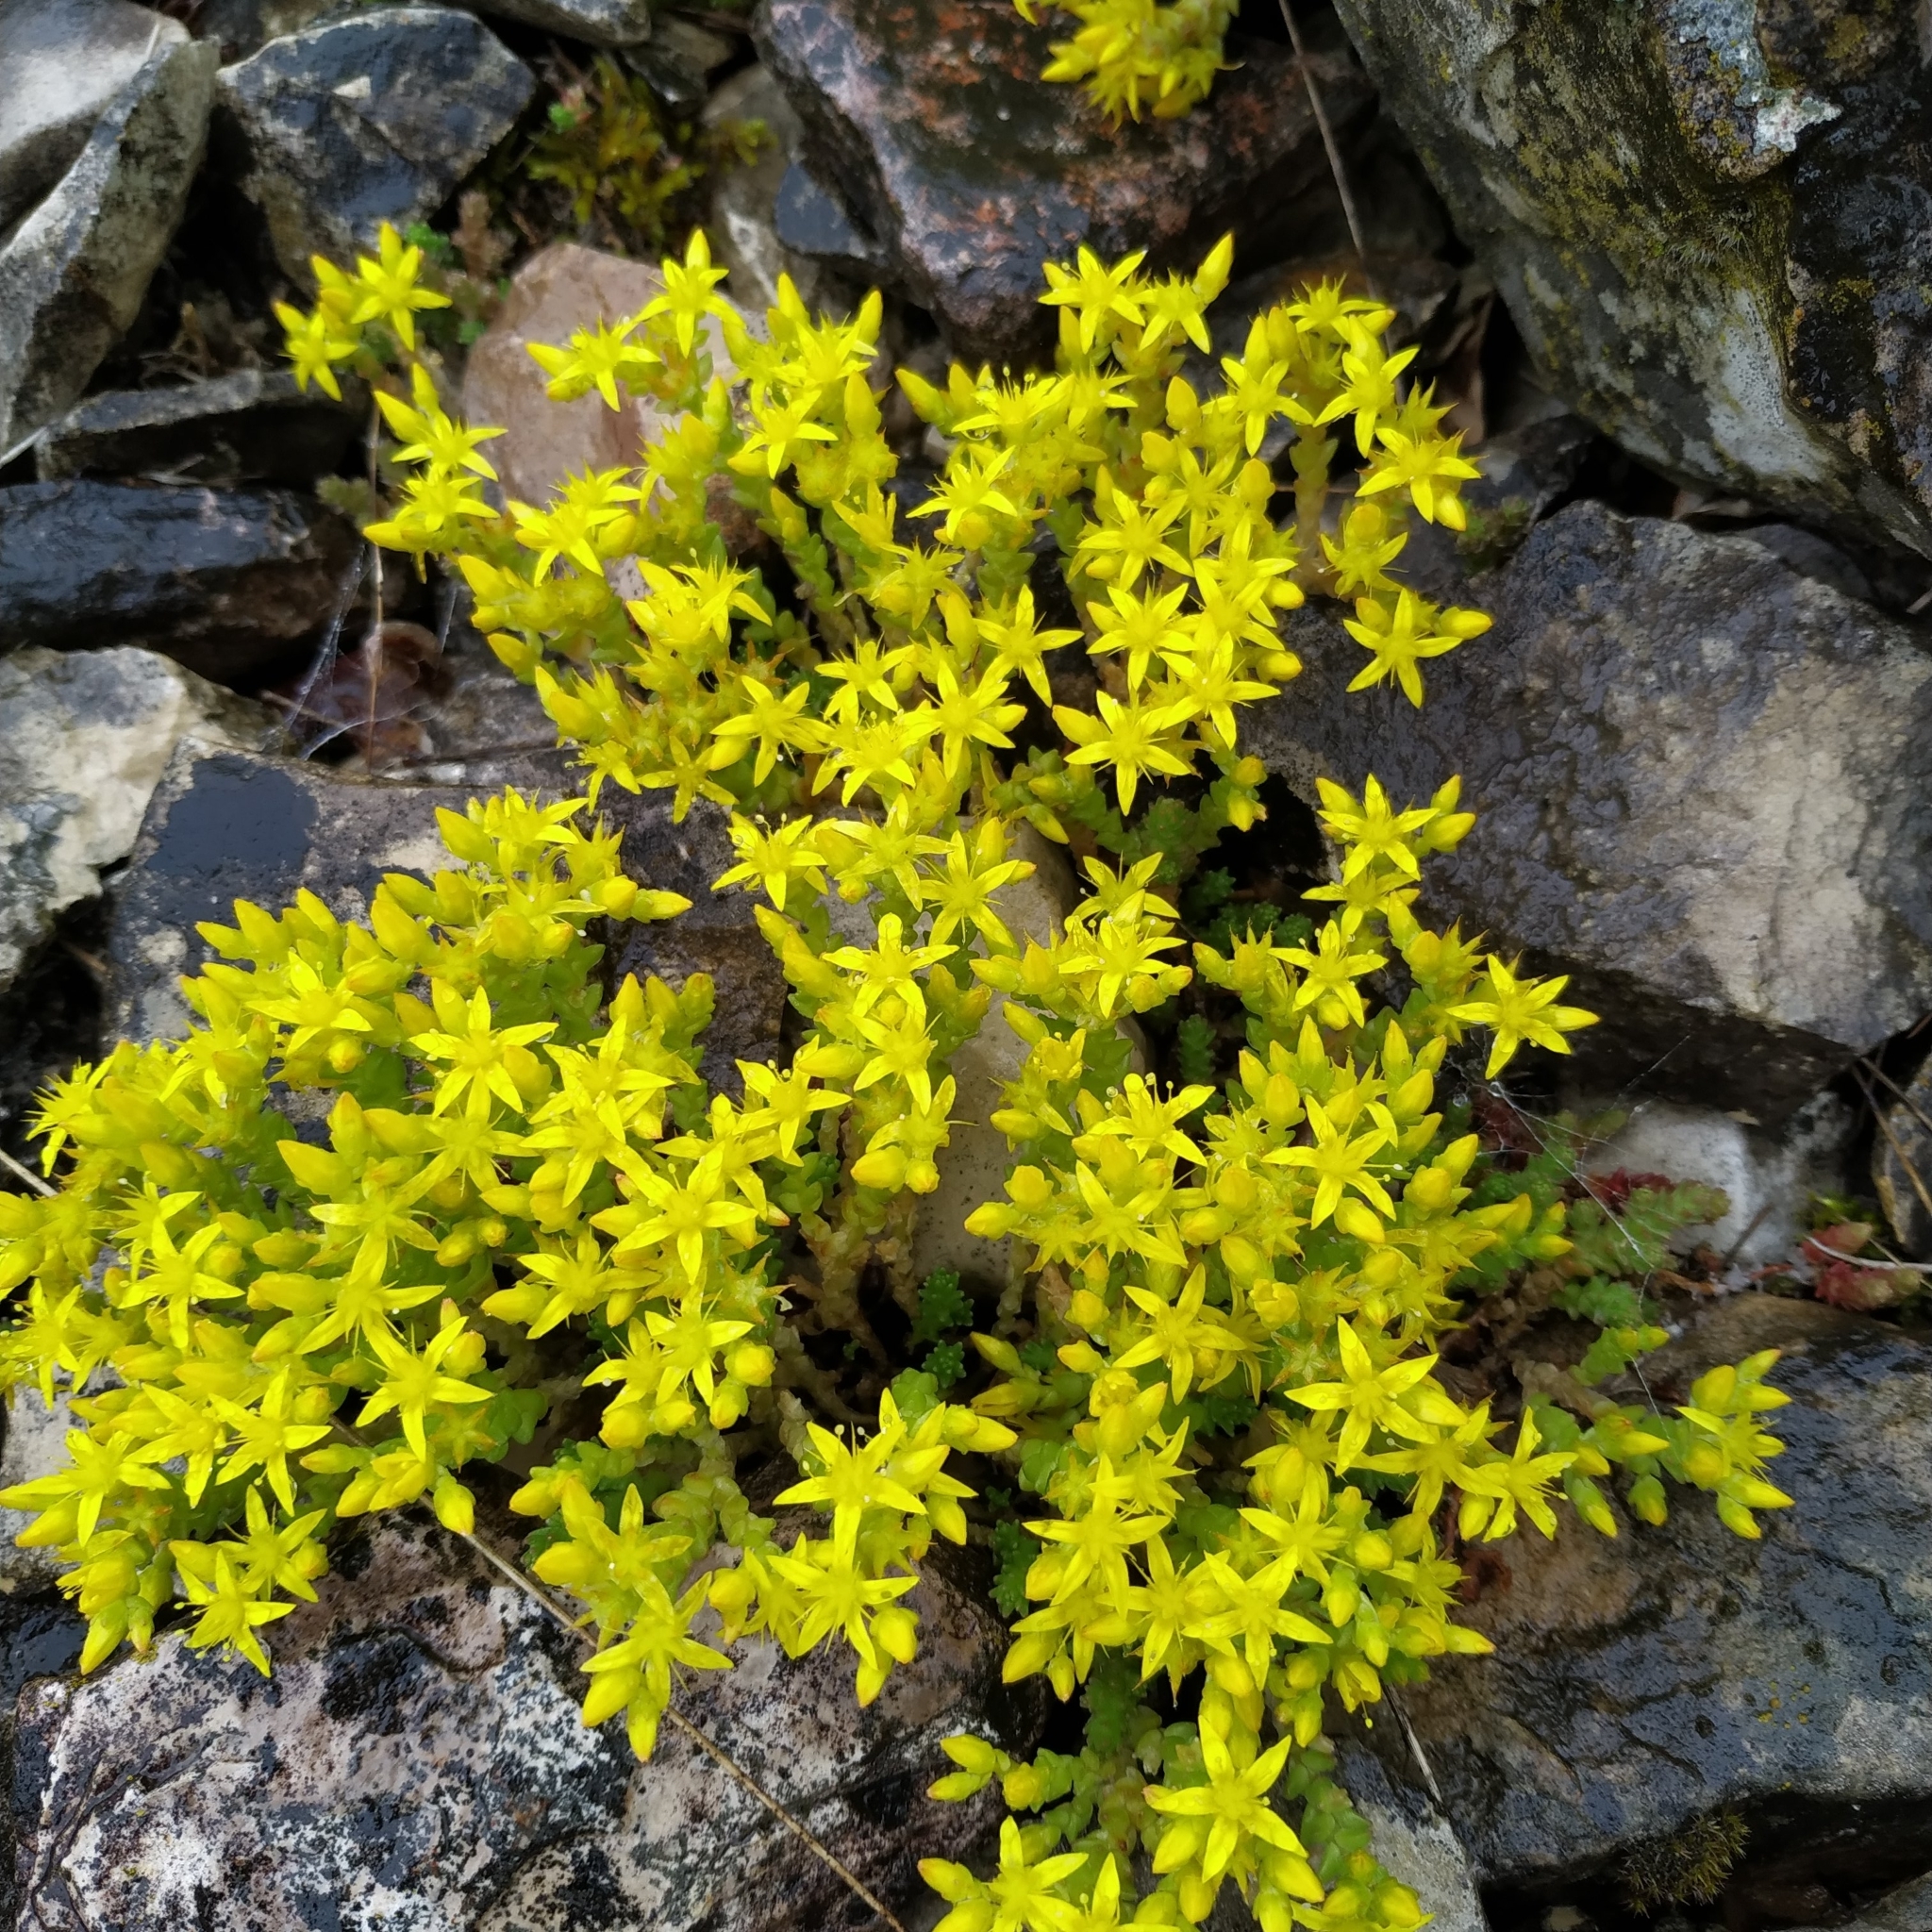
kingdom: Plantae
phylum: Tracheophyta
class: Magnoliopsida
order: Saxifragales
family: Crassulaceae
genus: Sedum
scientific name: Sedum acre
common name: Biting stonecrop
